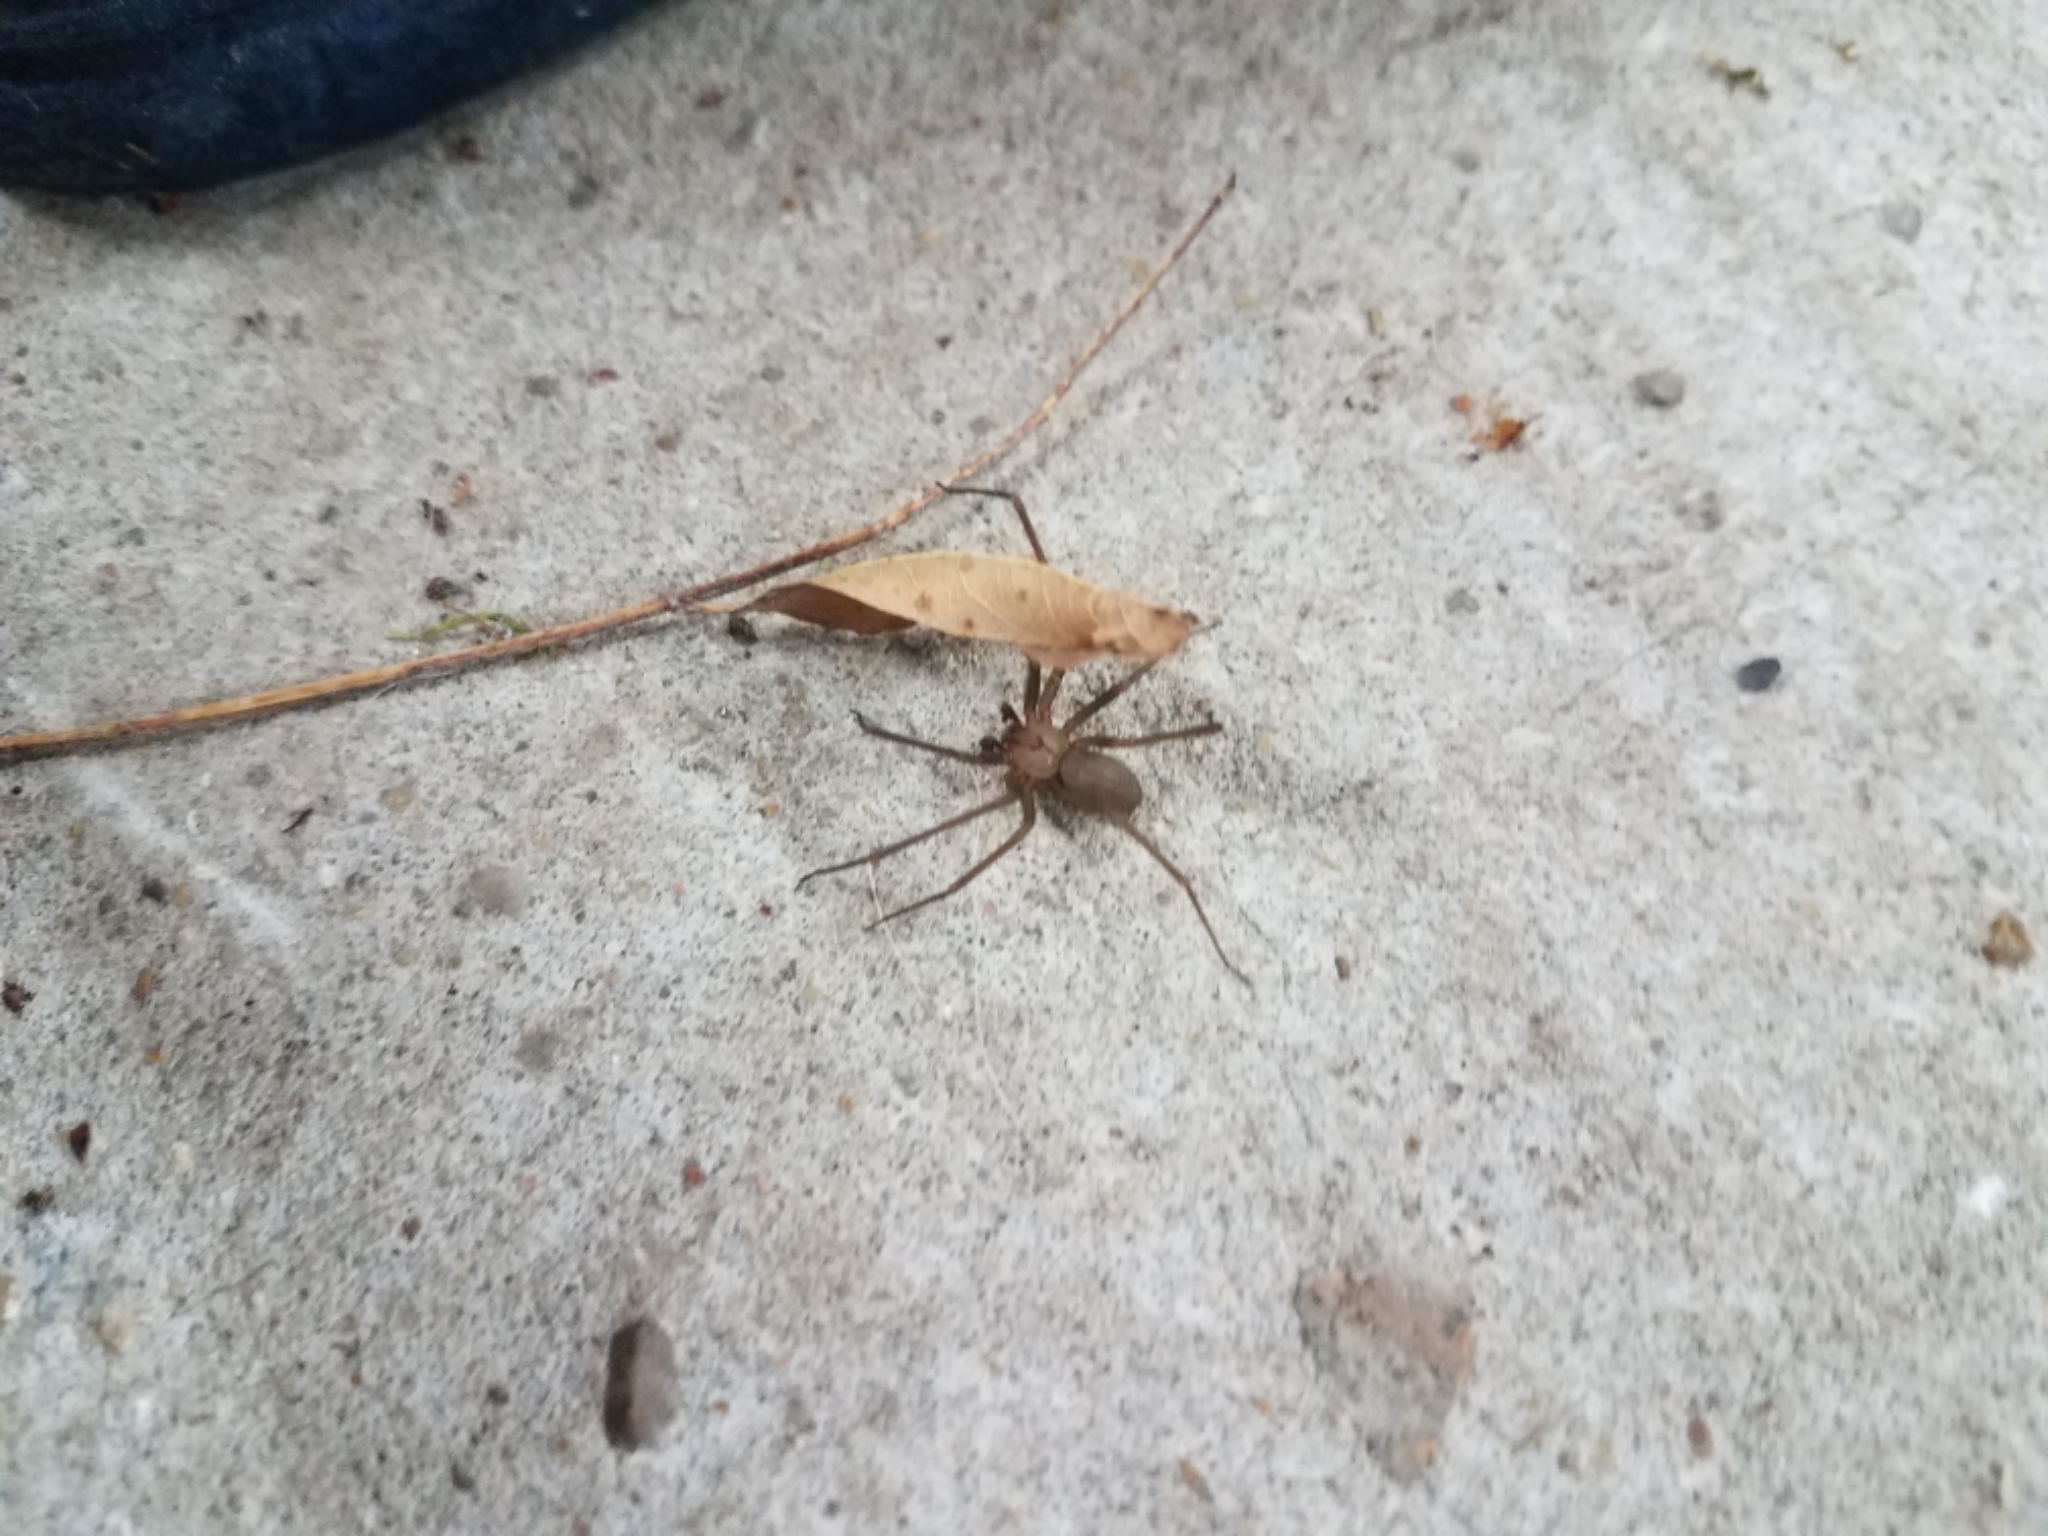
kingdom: Animalia
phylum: Arthropoda
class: Arachnida
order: Araneae
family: Sicariidae
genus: Loxosceles
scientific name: Loxosceles reclusa
